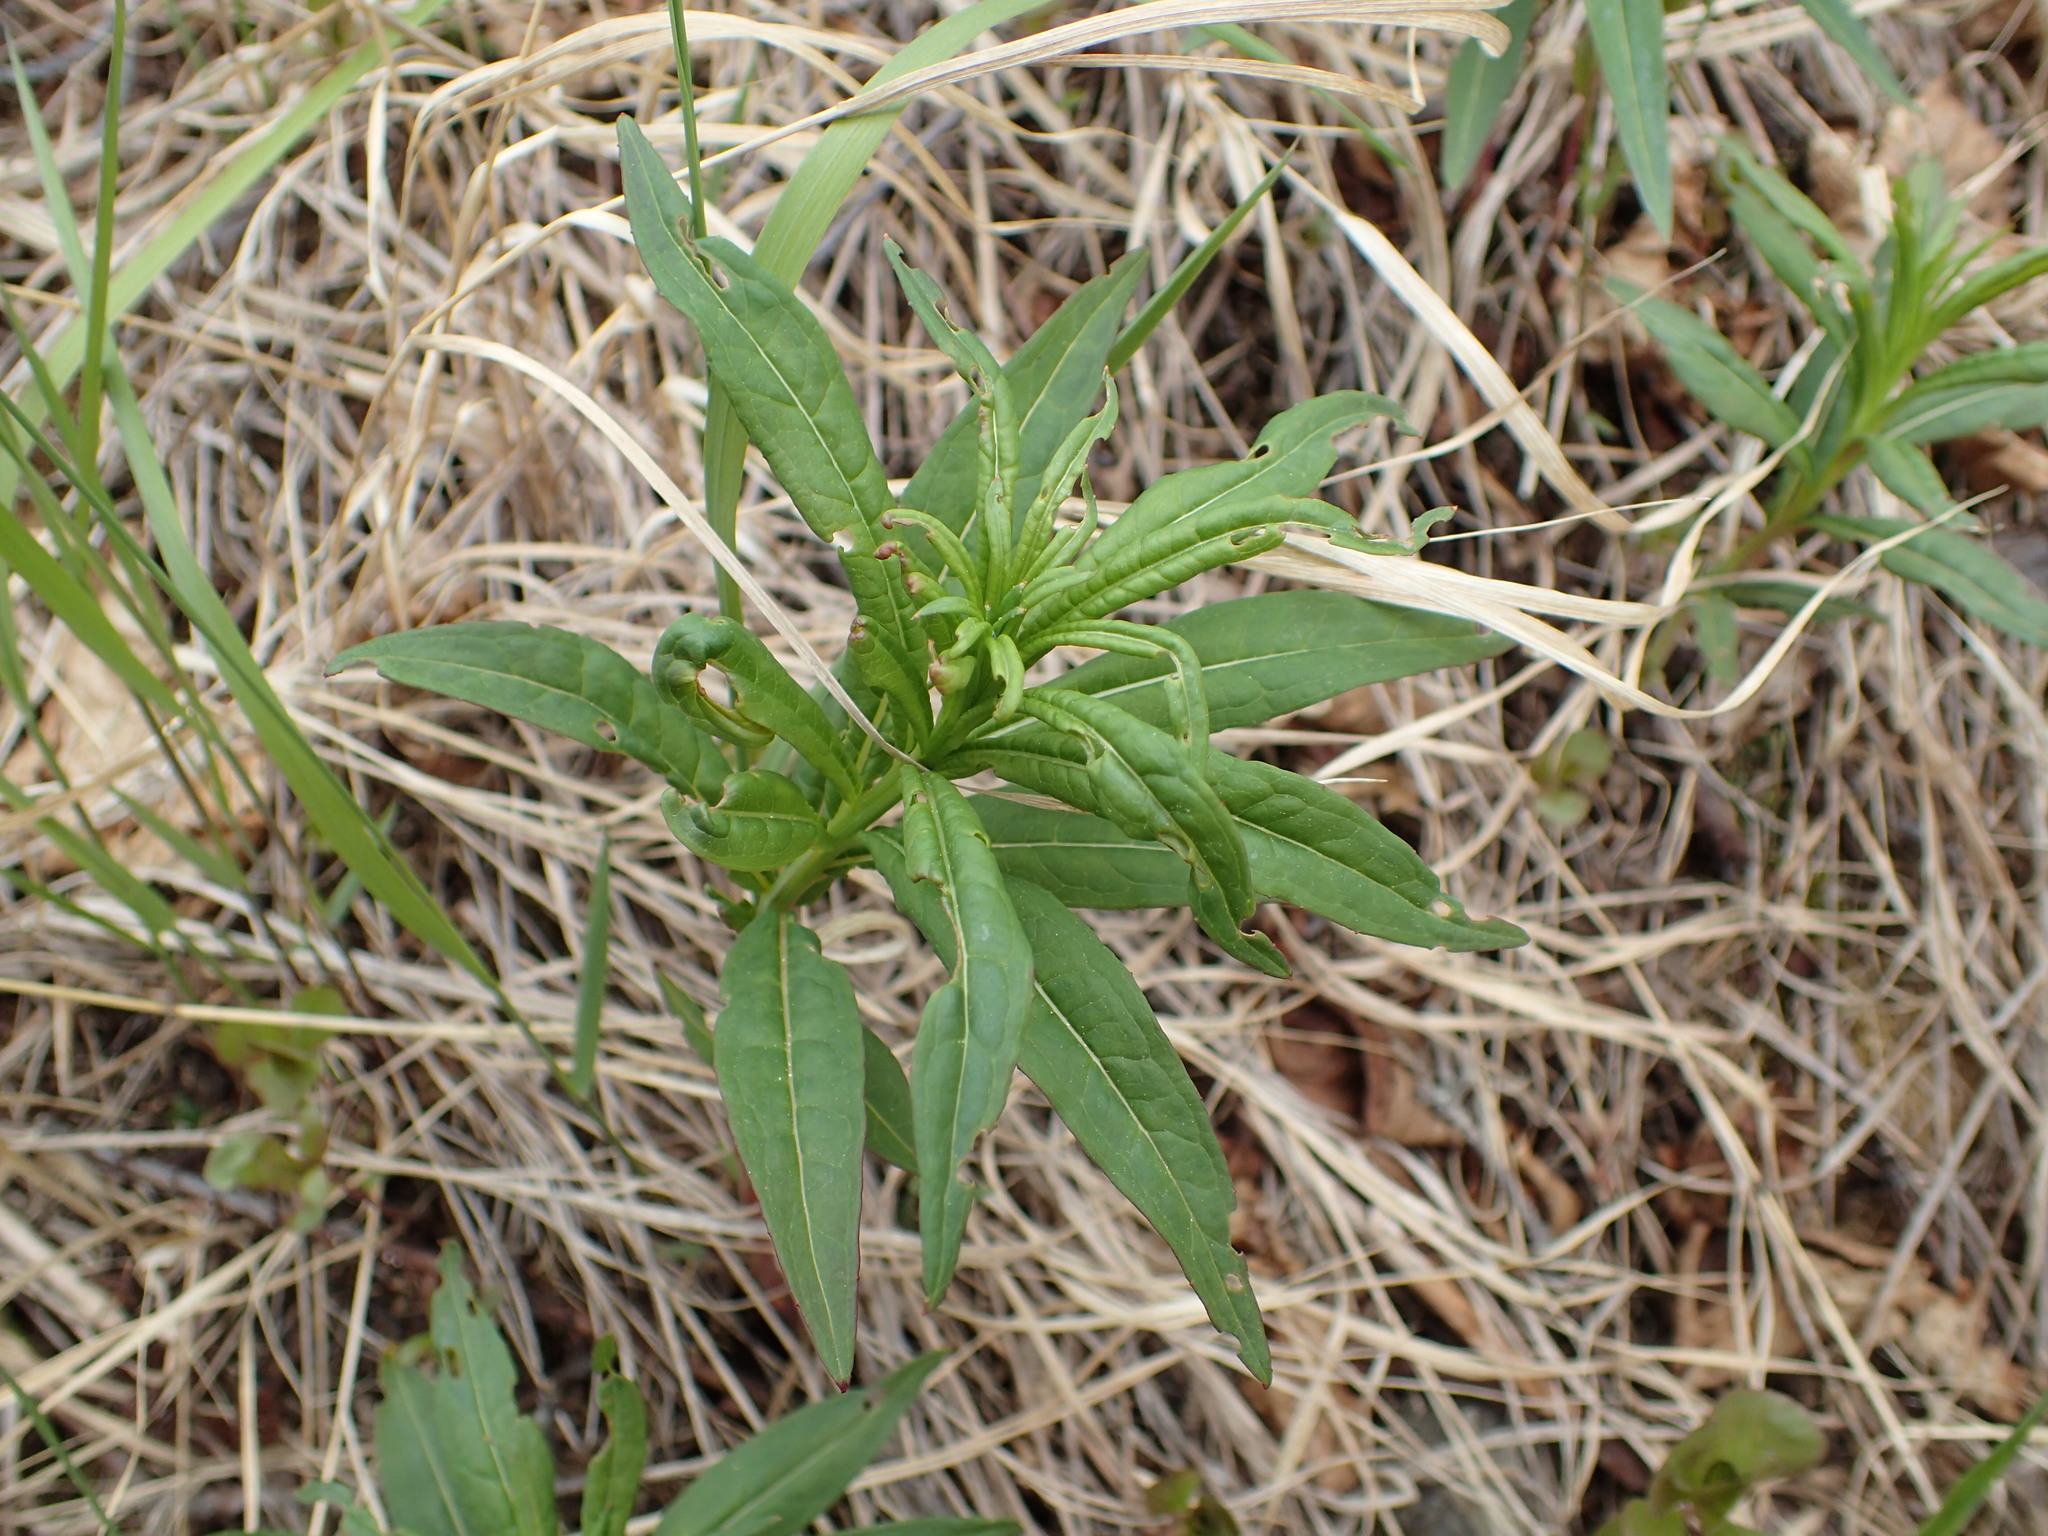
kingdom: Plantae
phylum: Tracheophyta
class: Magnoliopsida
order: Myrtales
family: Onagraceae
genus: Chamaenerion
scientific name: Chamaenerion angustifolium
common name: Fireweed
